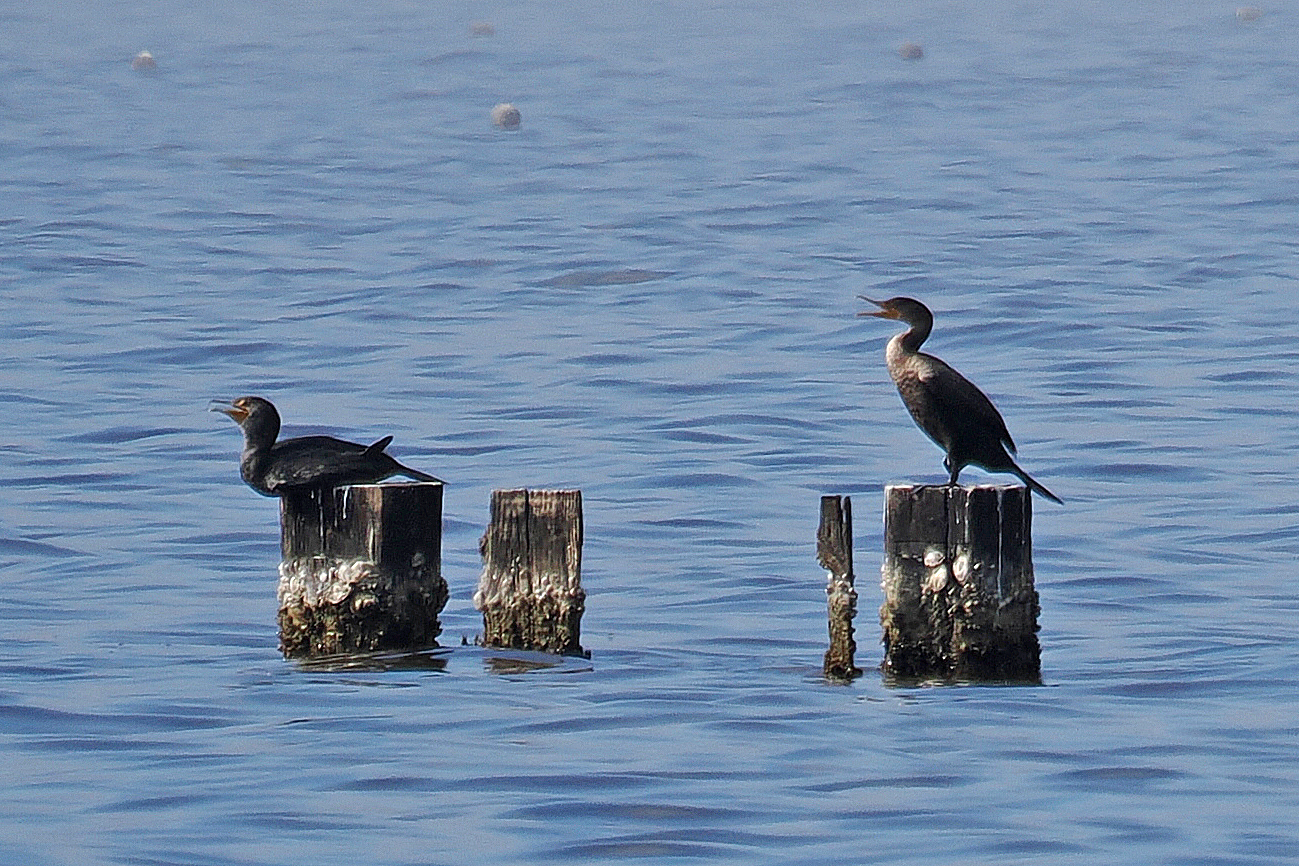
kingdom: Animalia
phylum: Chordata
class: Aves
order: Suliformes
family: Phalacrocoracidae
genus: Phalacrocorax
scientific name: Phalacrocorax auritus
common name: Double-crested cormorant
